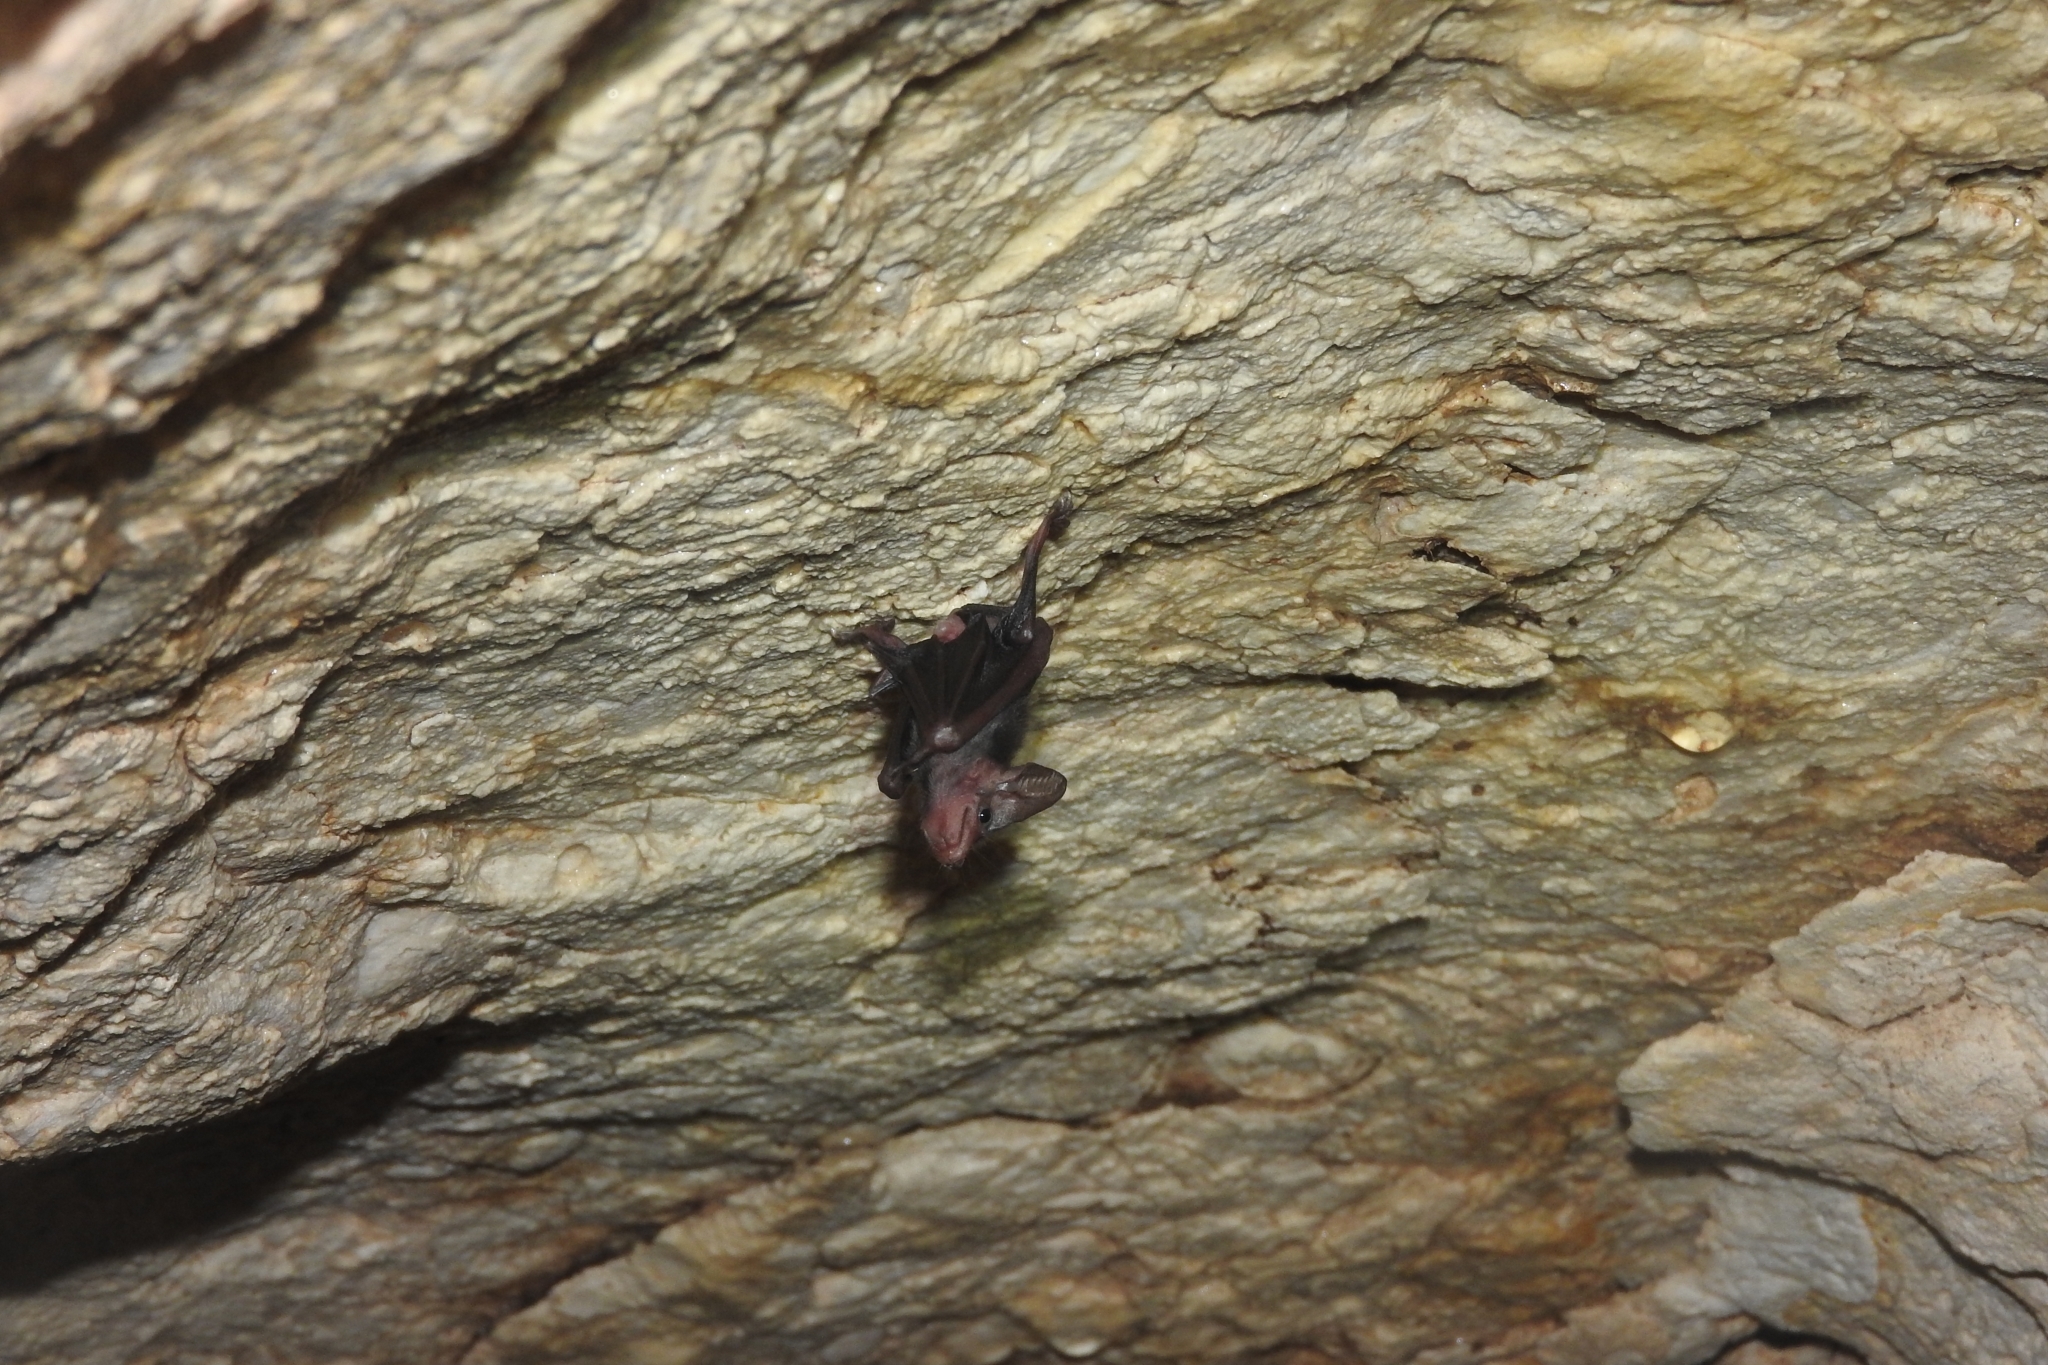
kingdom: Animalia
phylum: Chordata
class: Mammalia
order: Chiroptera
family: Emballonuridae
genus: Peropteryx
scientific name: Peropteryx macrotis
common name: Lesser dog-like bat
